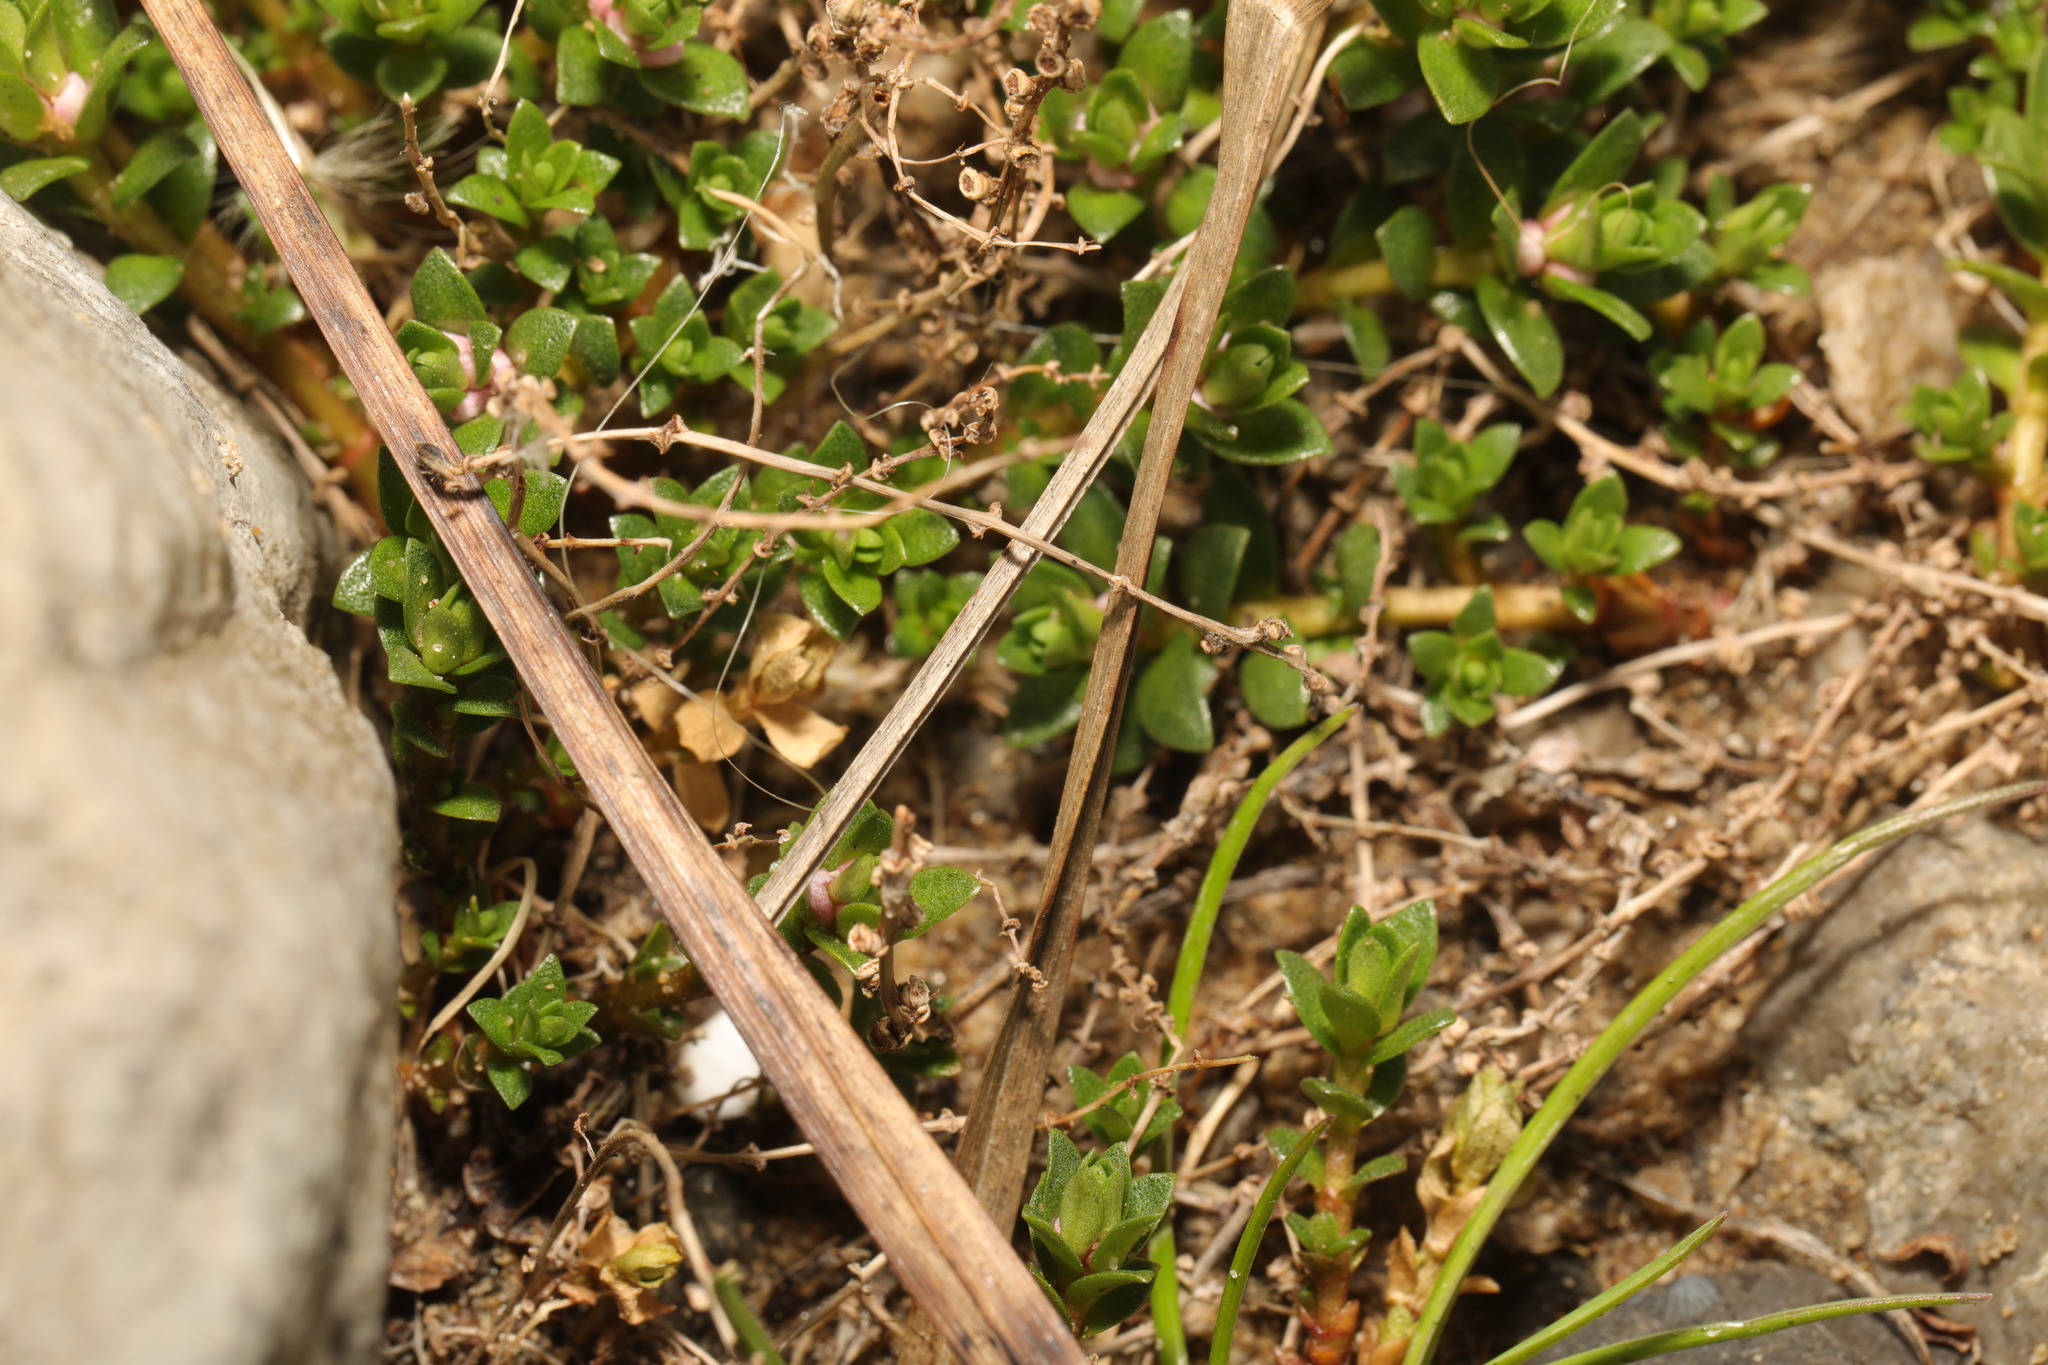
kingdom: Plantae
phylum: Tracheophyta
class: Magnoliopsida
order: Ericales
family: Primulaceae
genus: Lysimachia
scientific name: Lysimachia maritima
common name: Sea milkwort
